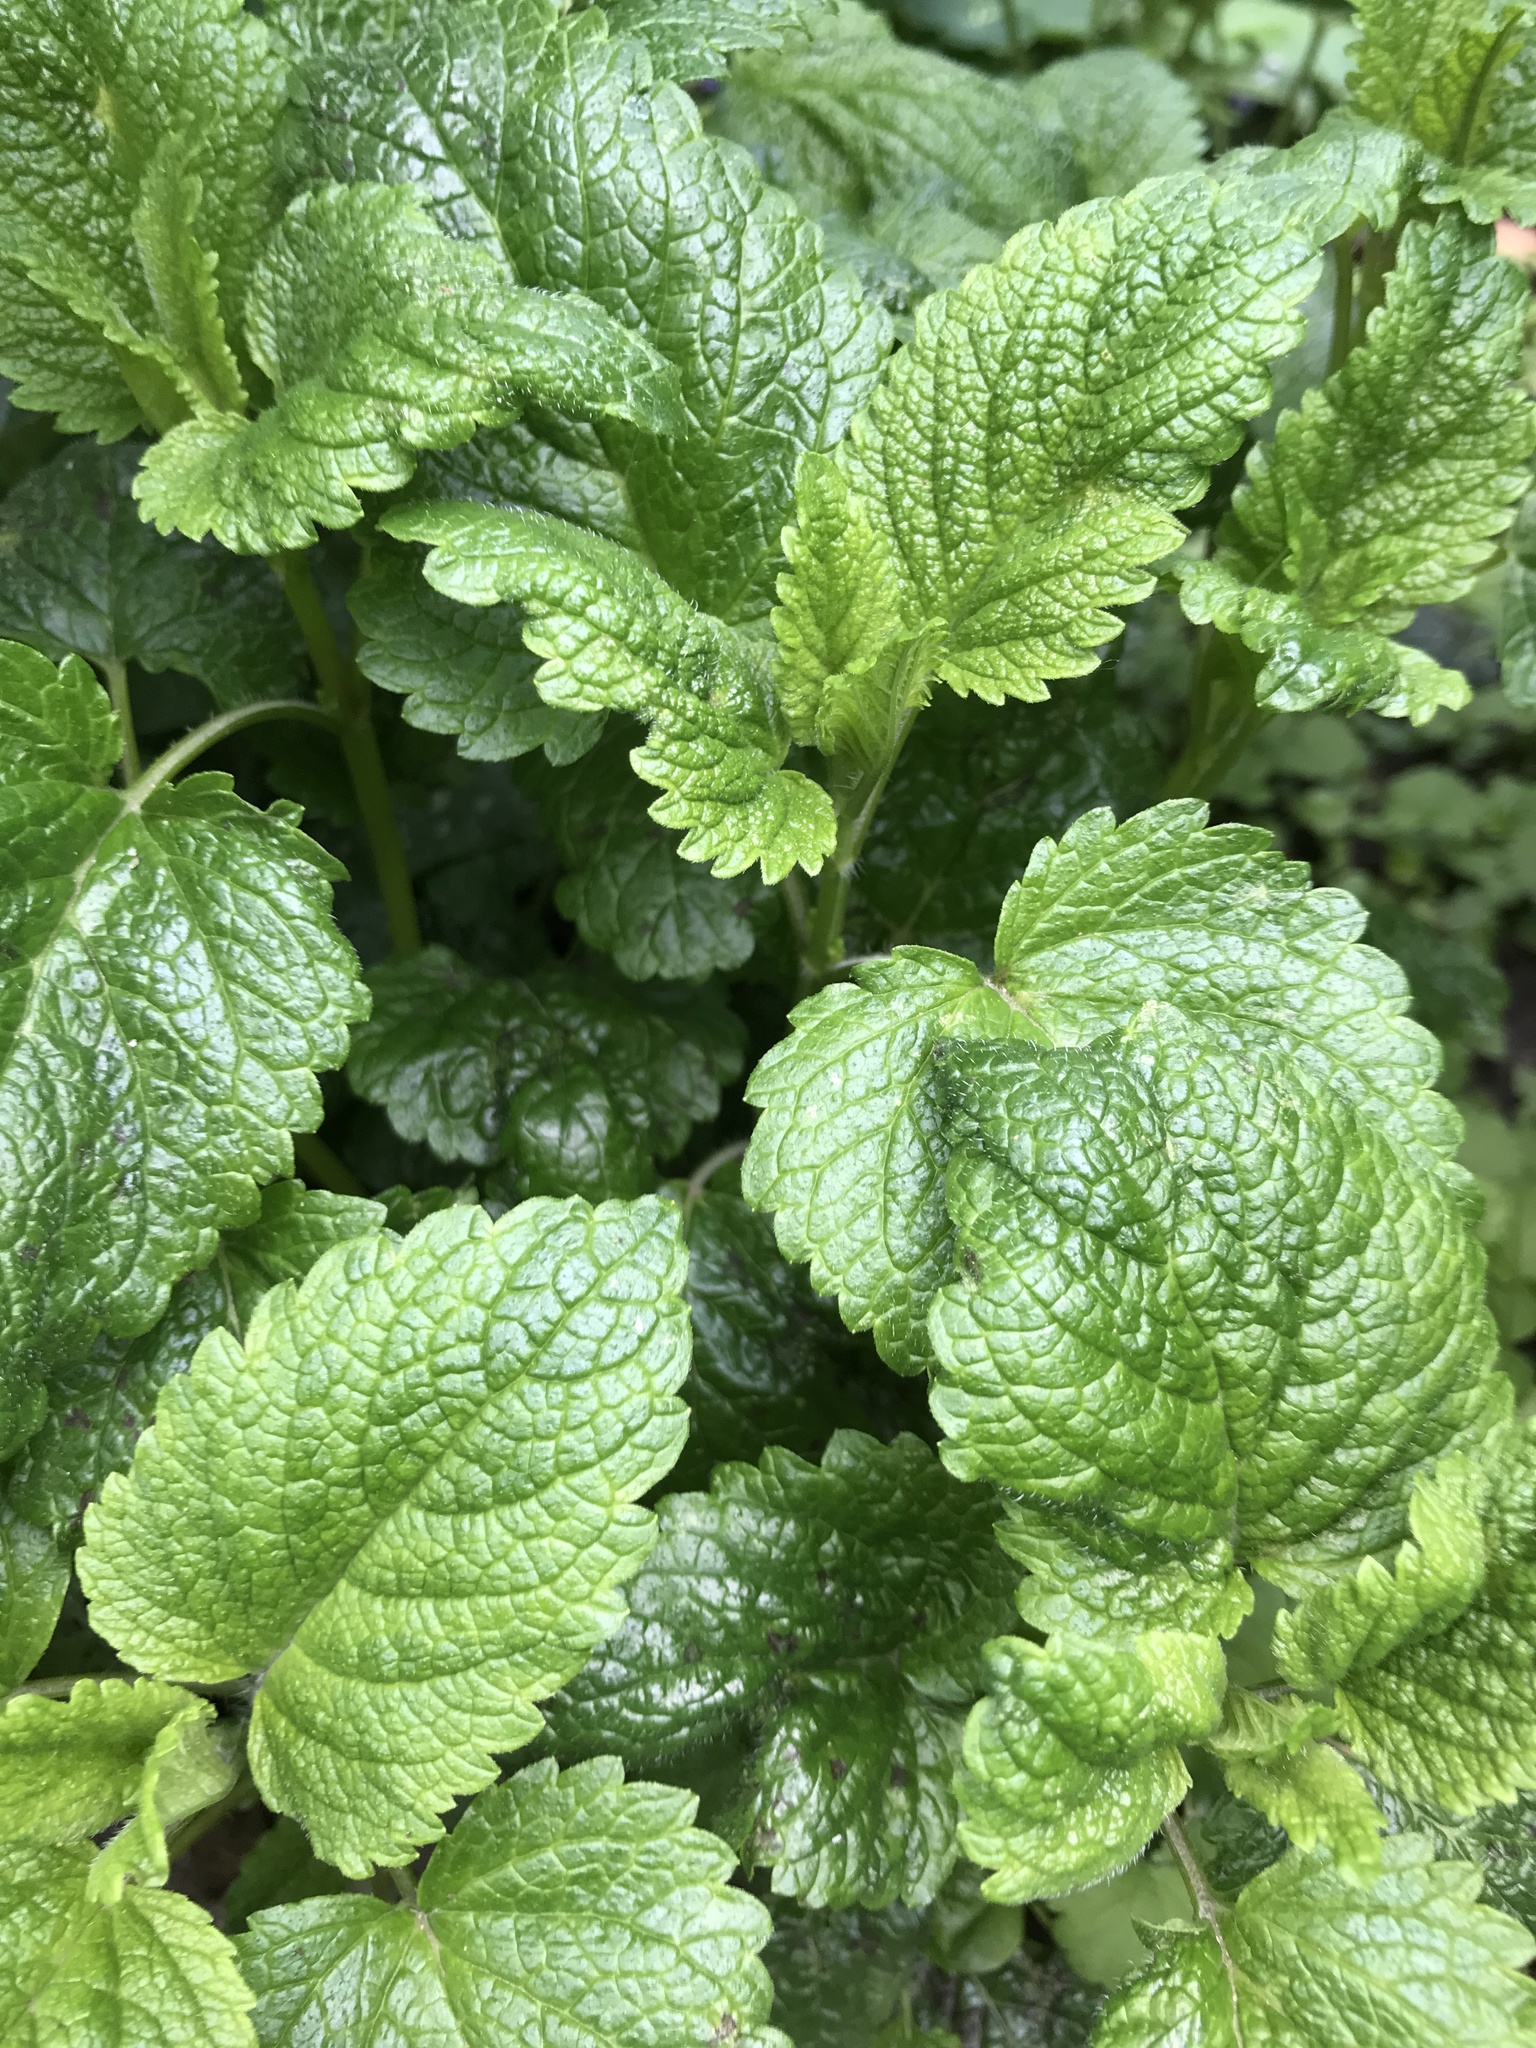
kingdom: Plantae
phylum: Tracheophyta
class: Magnoliopsida
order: Lamiales
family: Lamiaceae
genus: Melissa
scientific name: Melissa officinalis
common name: Balm
